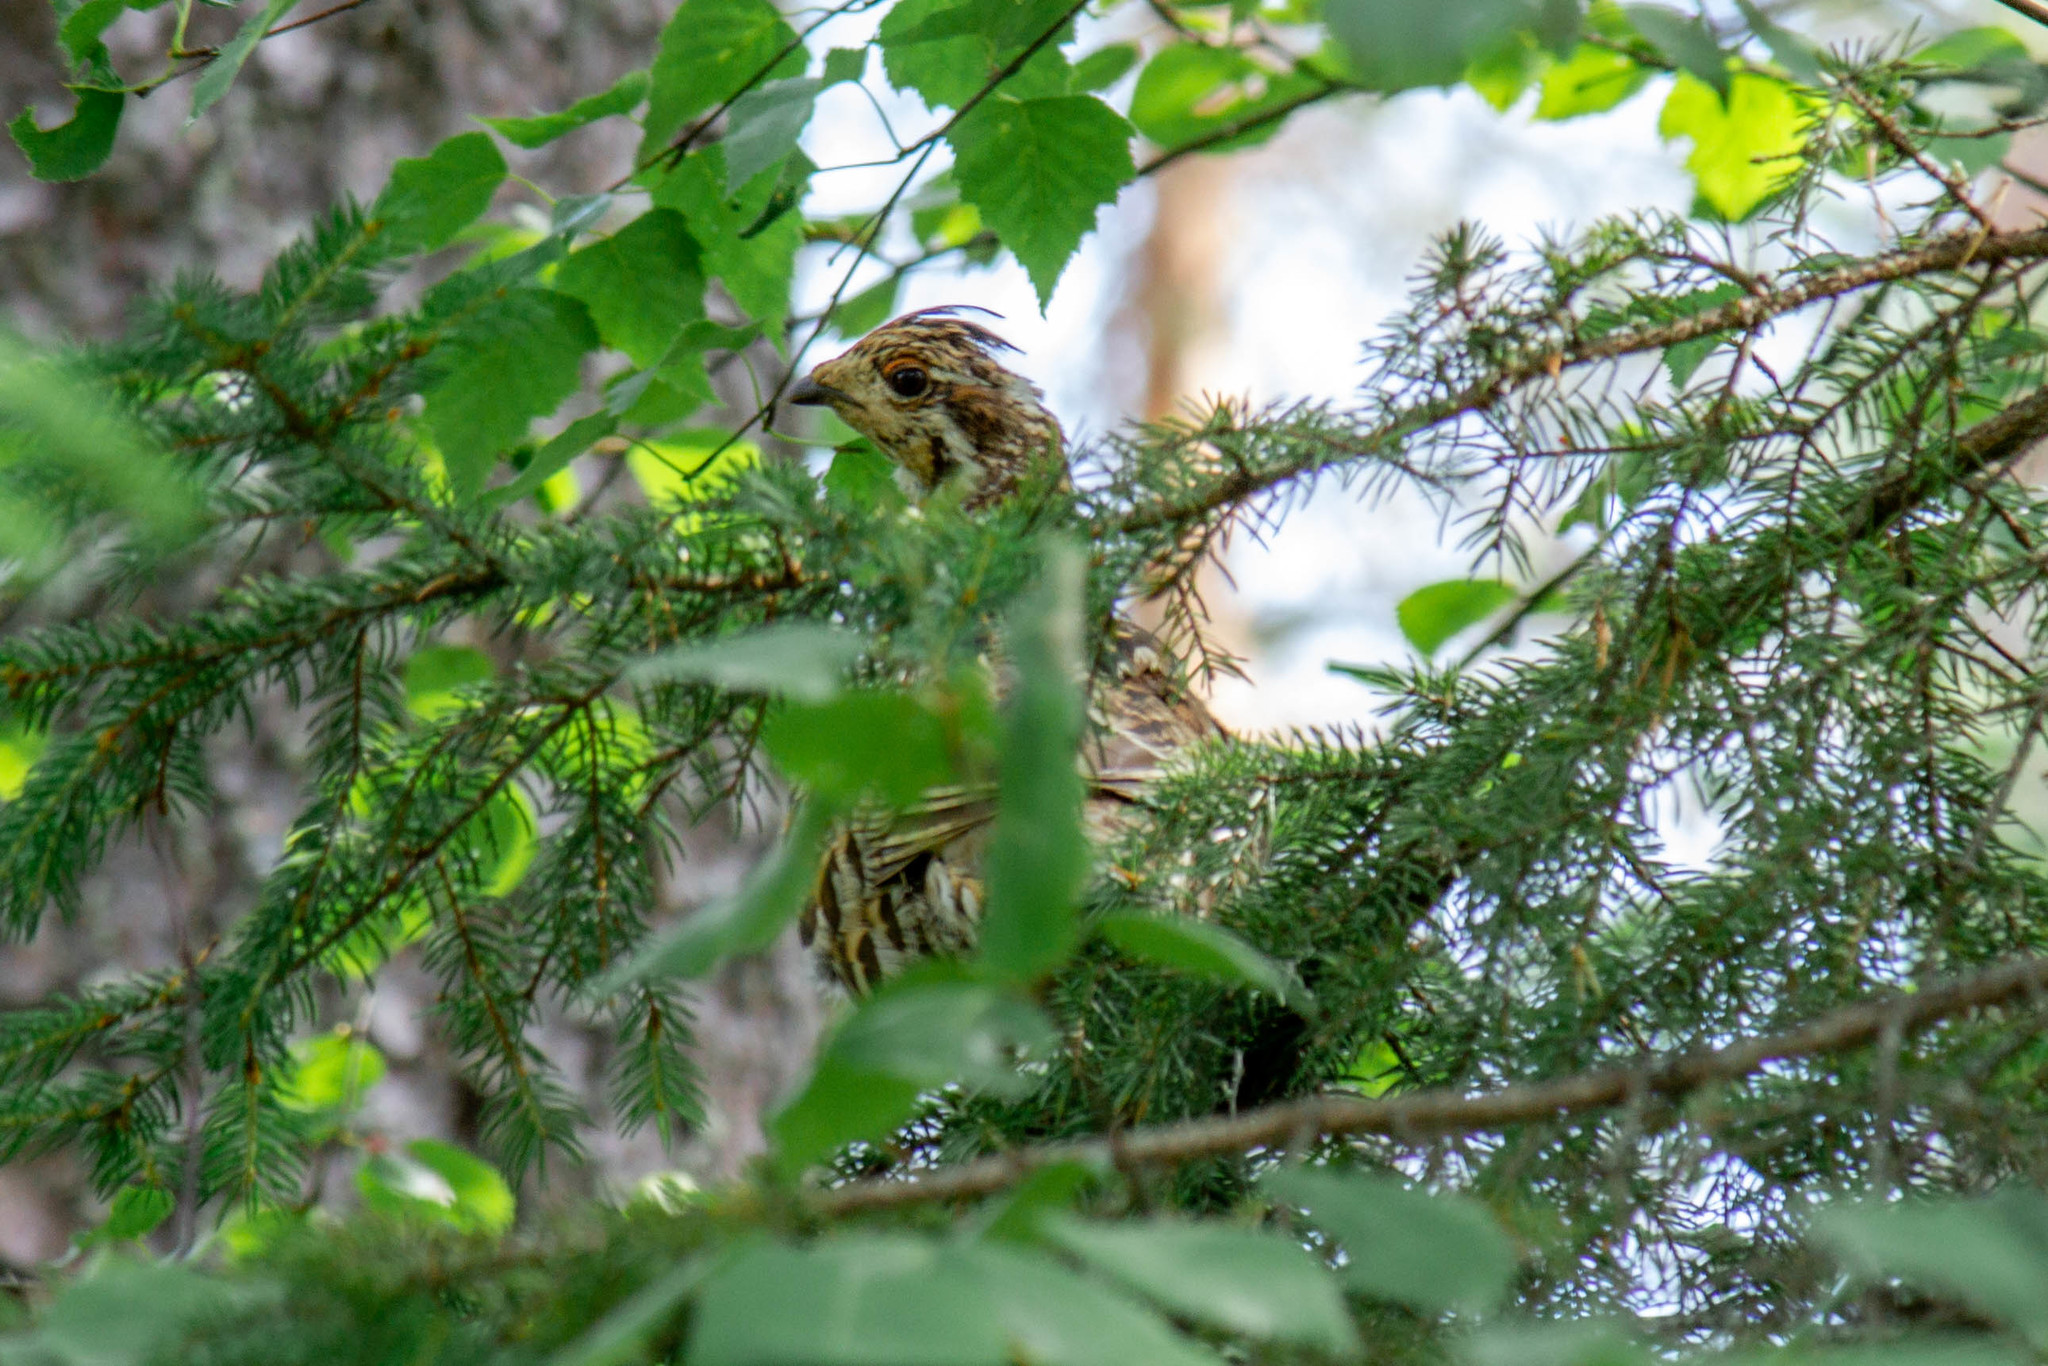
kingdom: Animalia
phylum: Chordata
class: Aves
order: Galliformes
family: Phasianidae
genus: Tetrastes
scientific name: Tetrastes bonasia
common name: Hazel grouse
